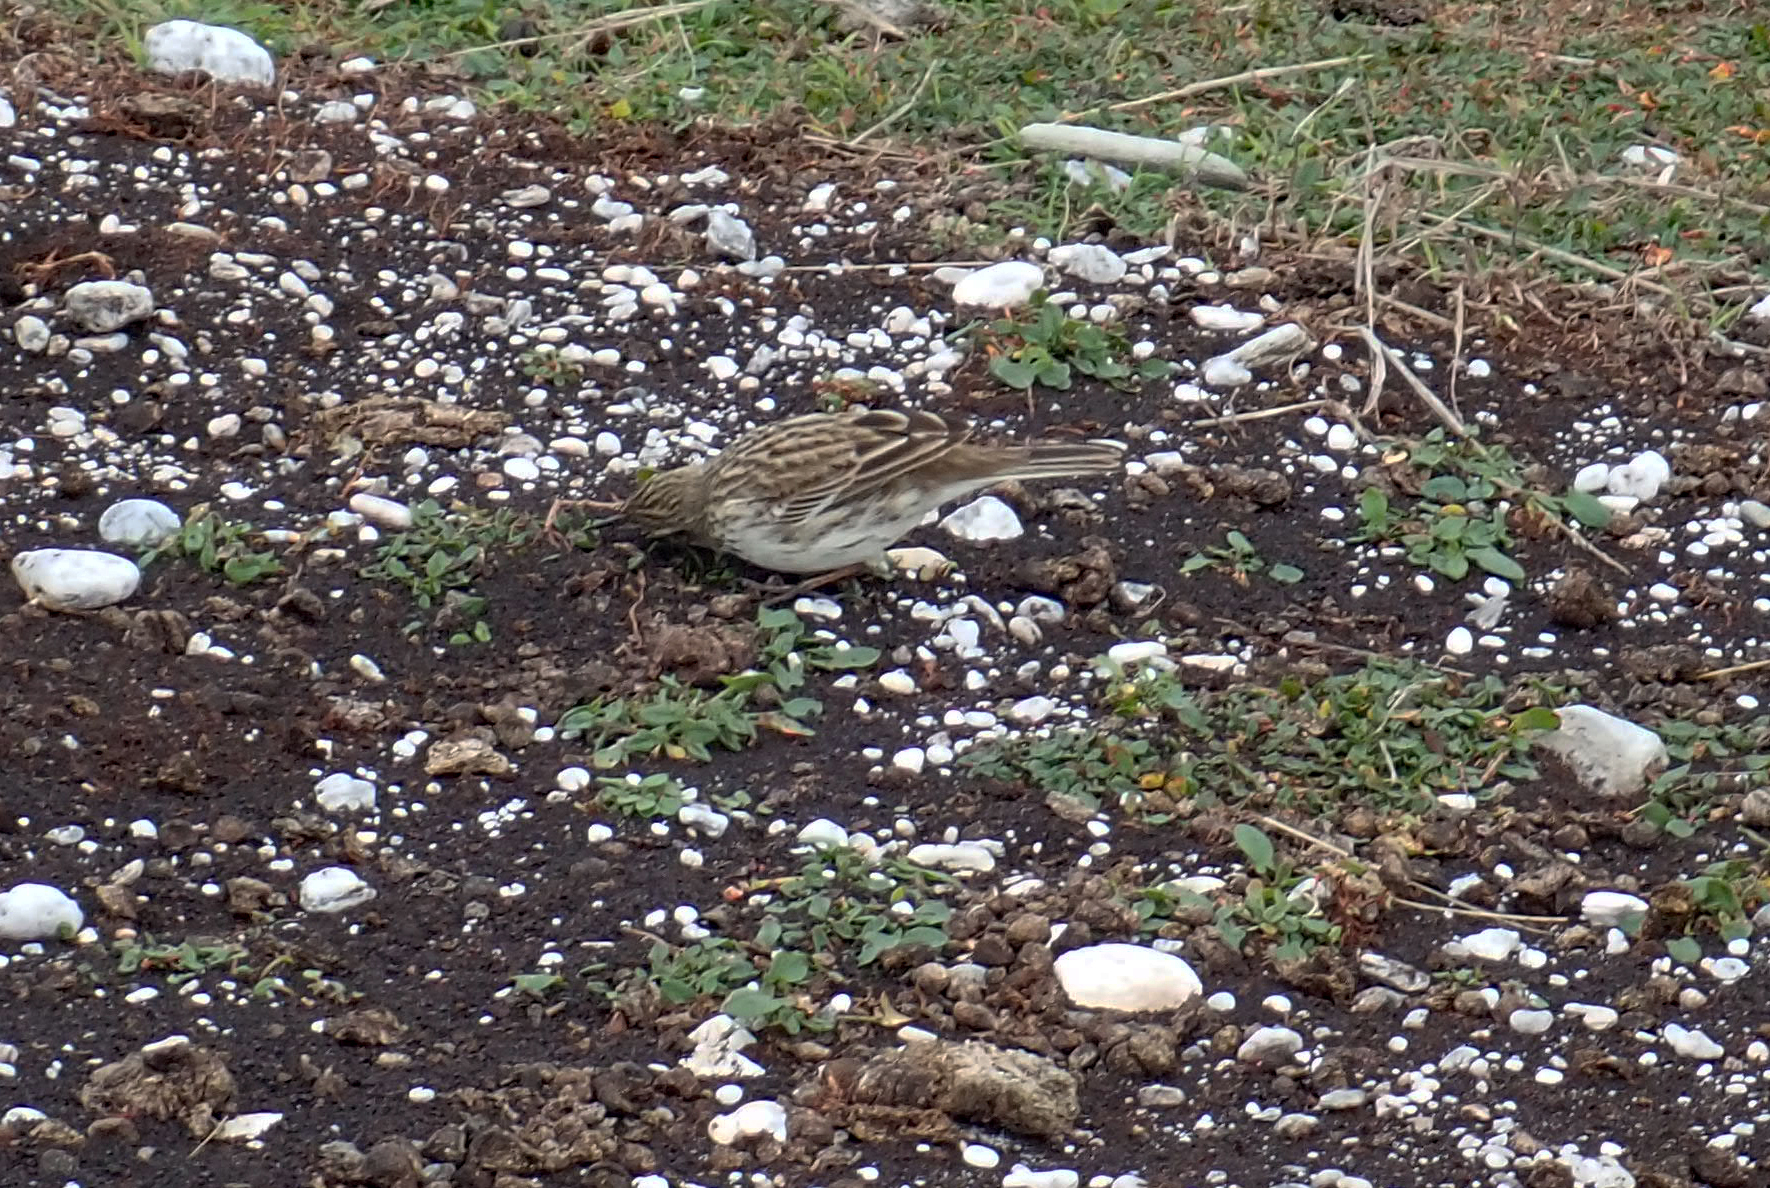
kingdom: Animalia
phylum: Chordata
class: Aves
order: Passeriformes
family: Motacillidae
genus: Anthus
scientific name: Anthus novaeseelandiae
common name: New zealand pipit
